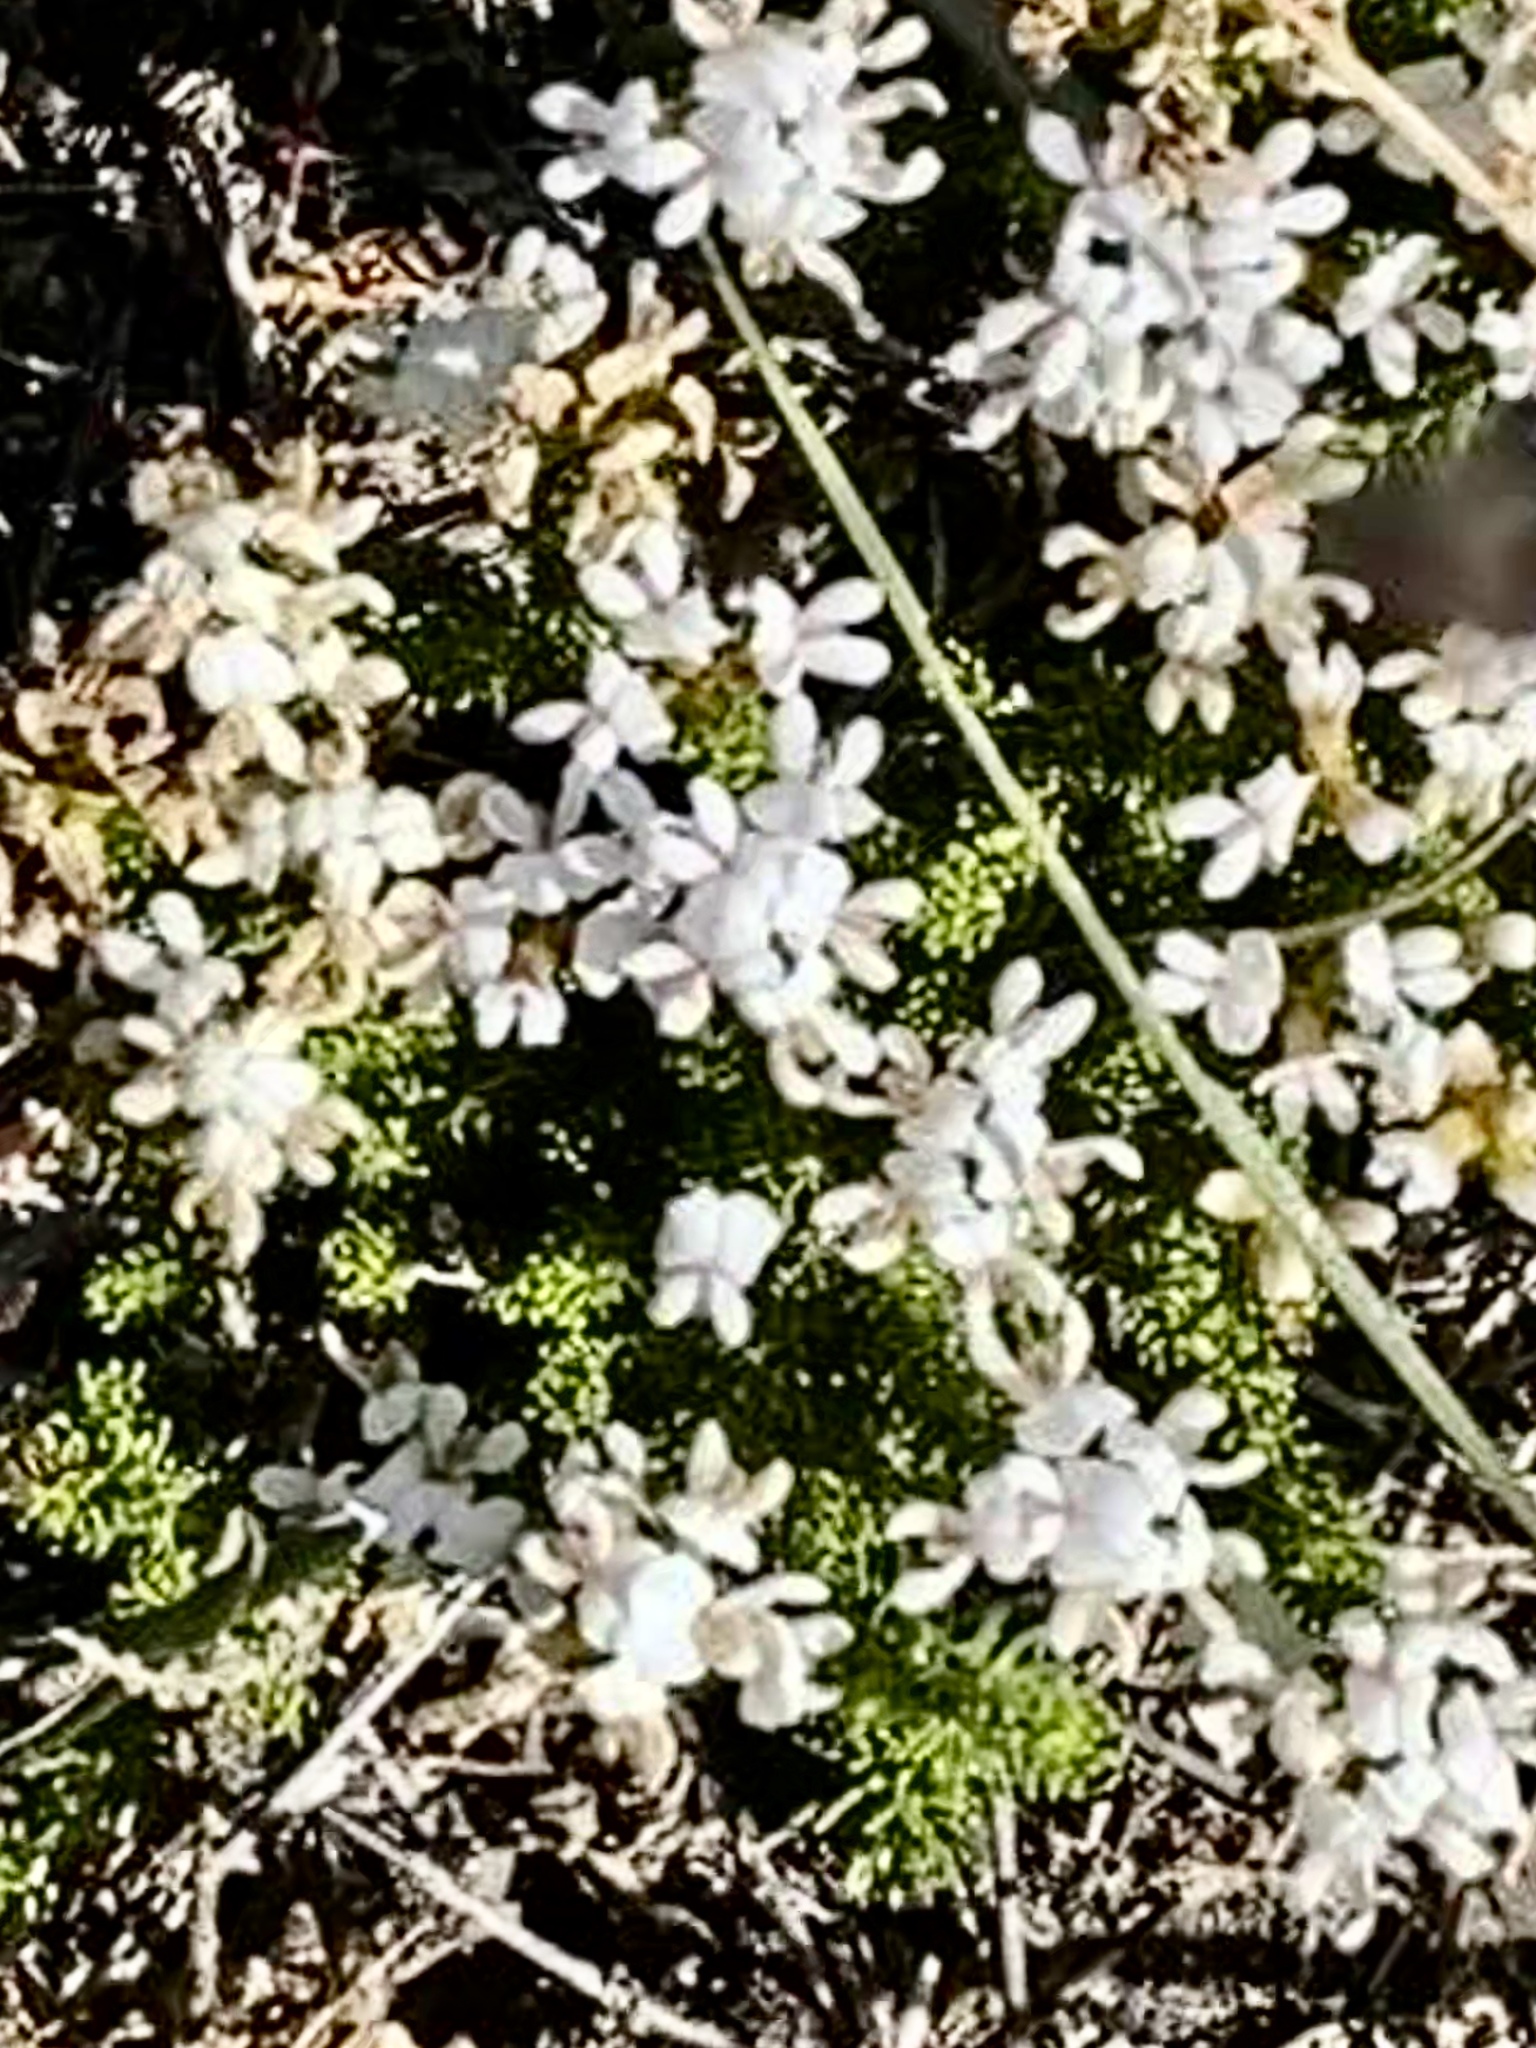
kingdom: Plantae
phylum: Tracheophyta
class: Magnoliopsida
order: Fabales
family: Fabaceae
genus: Aspalathus
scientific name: Aspalathus nigra
